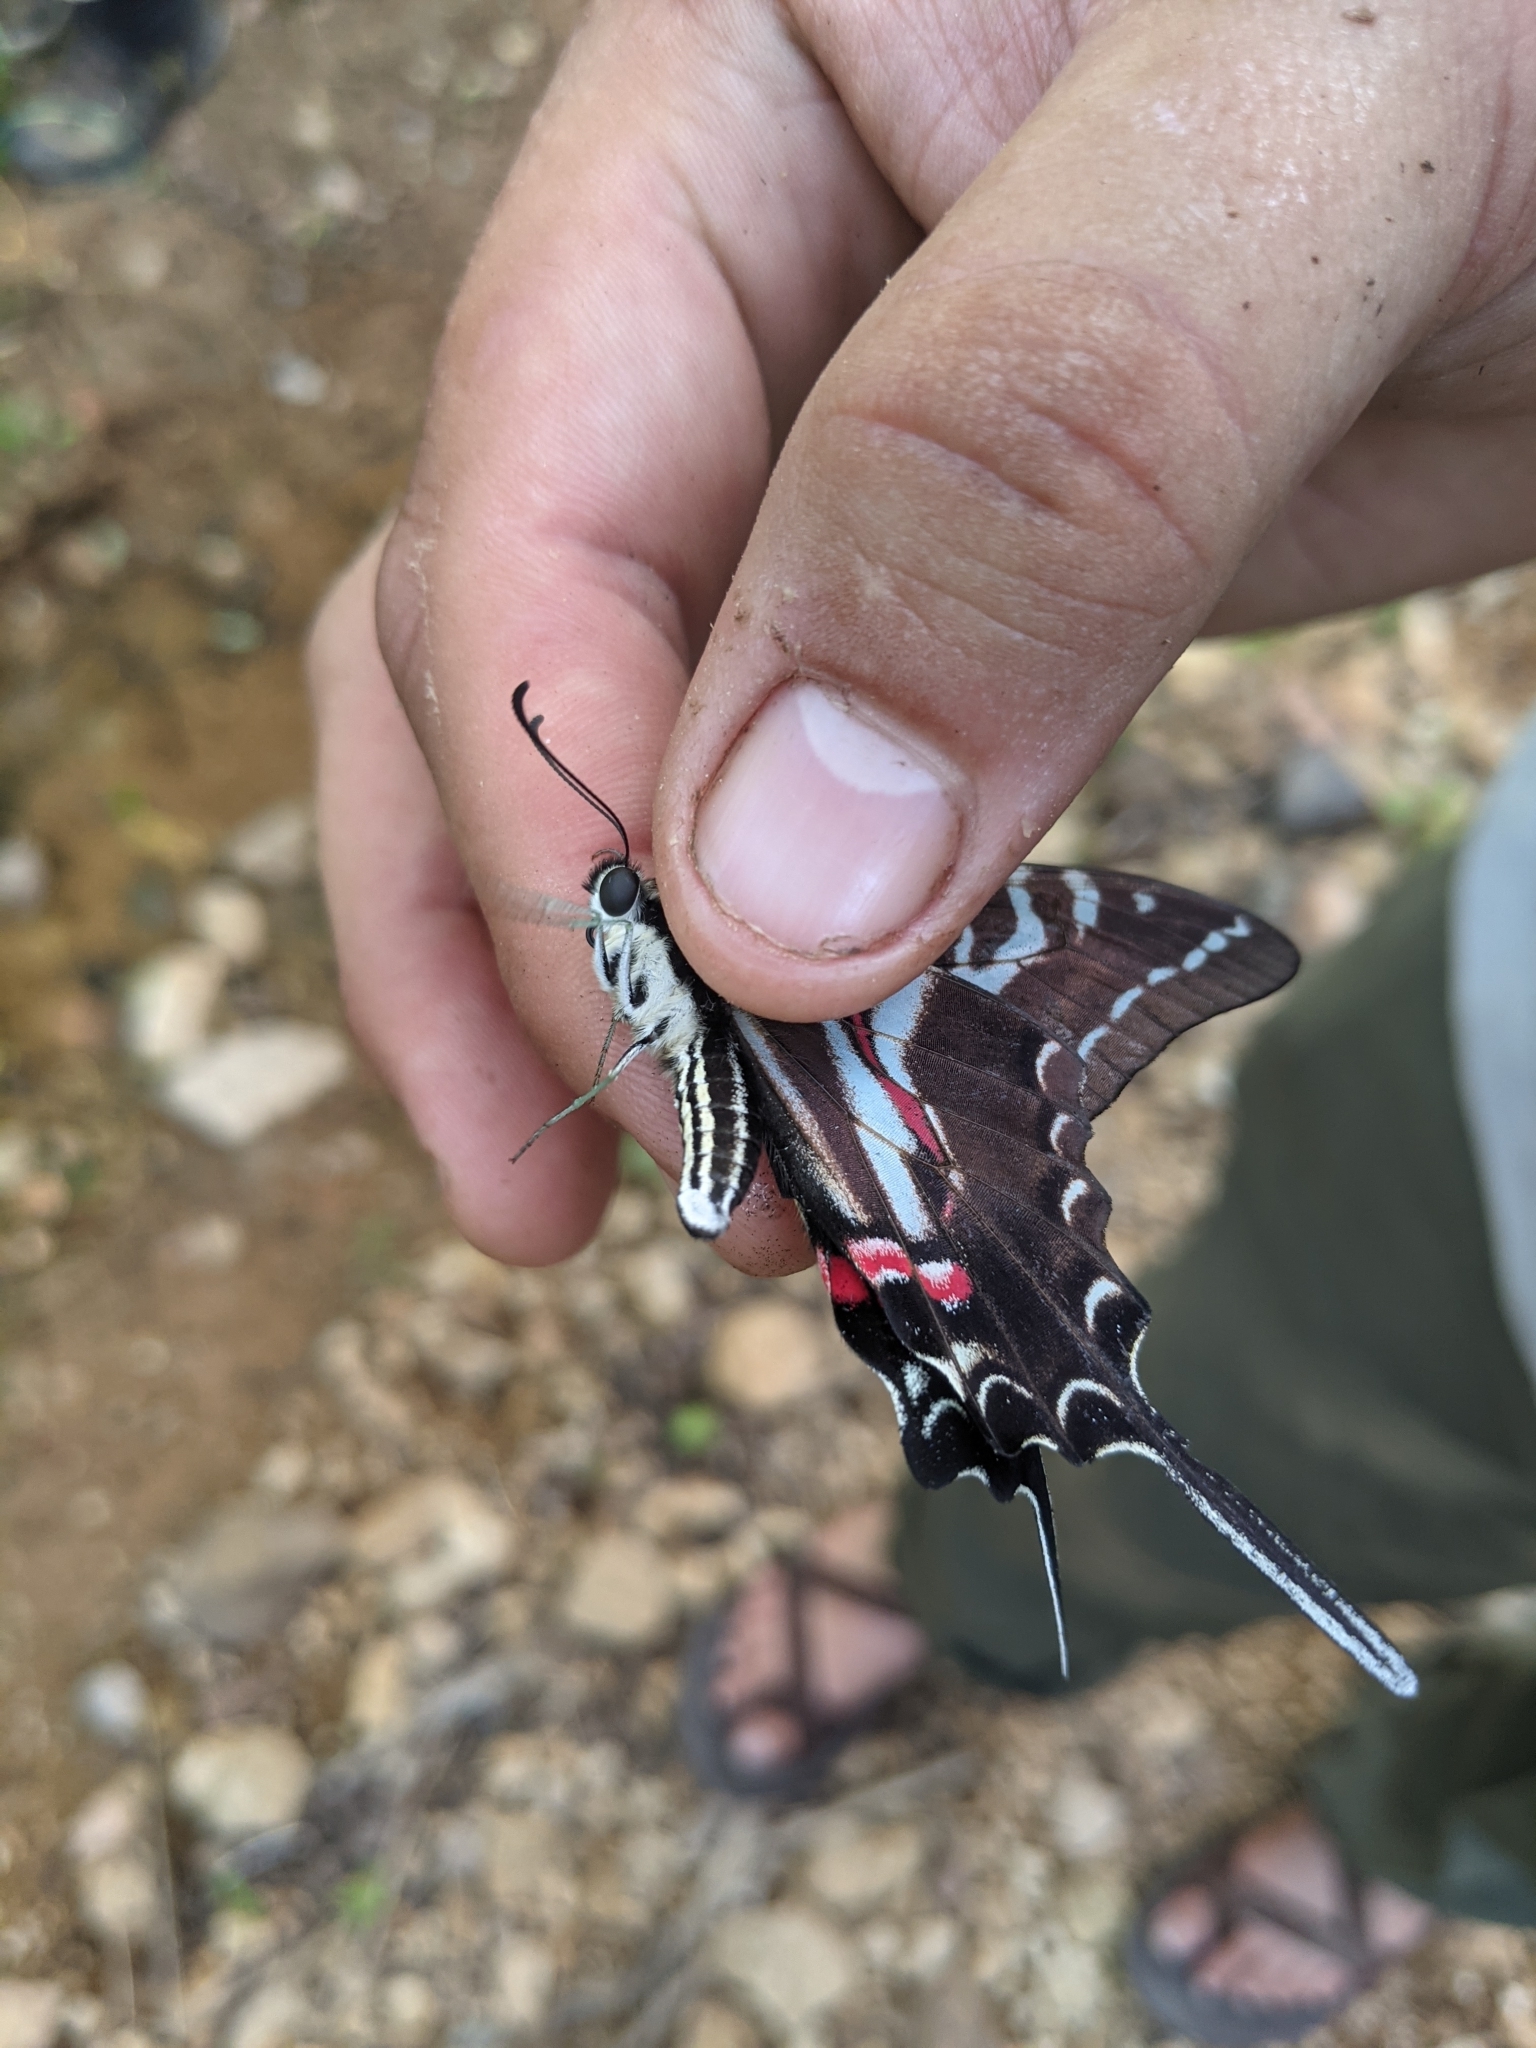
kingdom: Animalia
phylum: Arthropoda
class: Insecta
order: Lepidoptera
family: Papilionidae
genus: Protographium
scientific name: Protographium philolaus
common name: Dark zebra swallowtail
